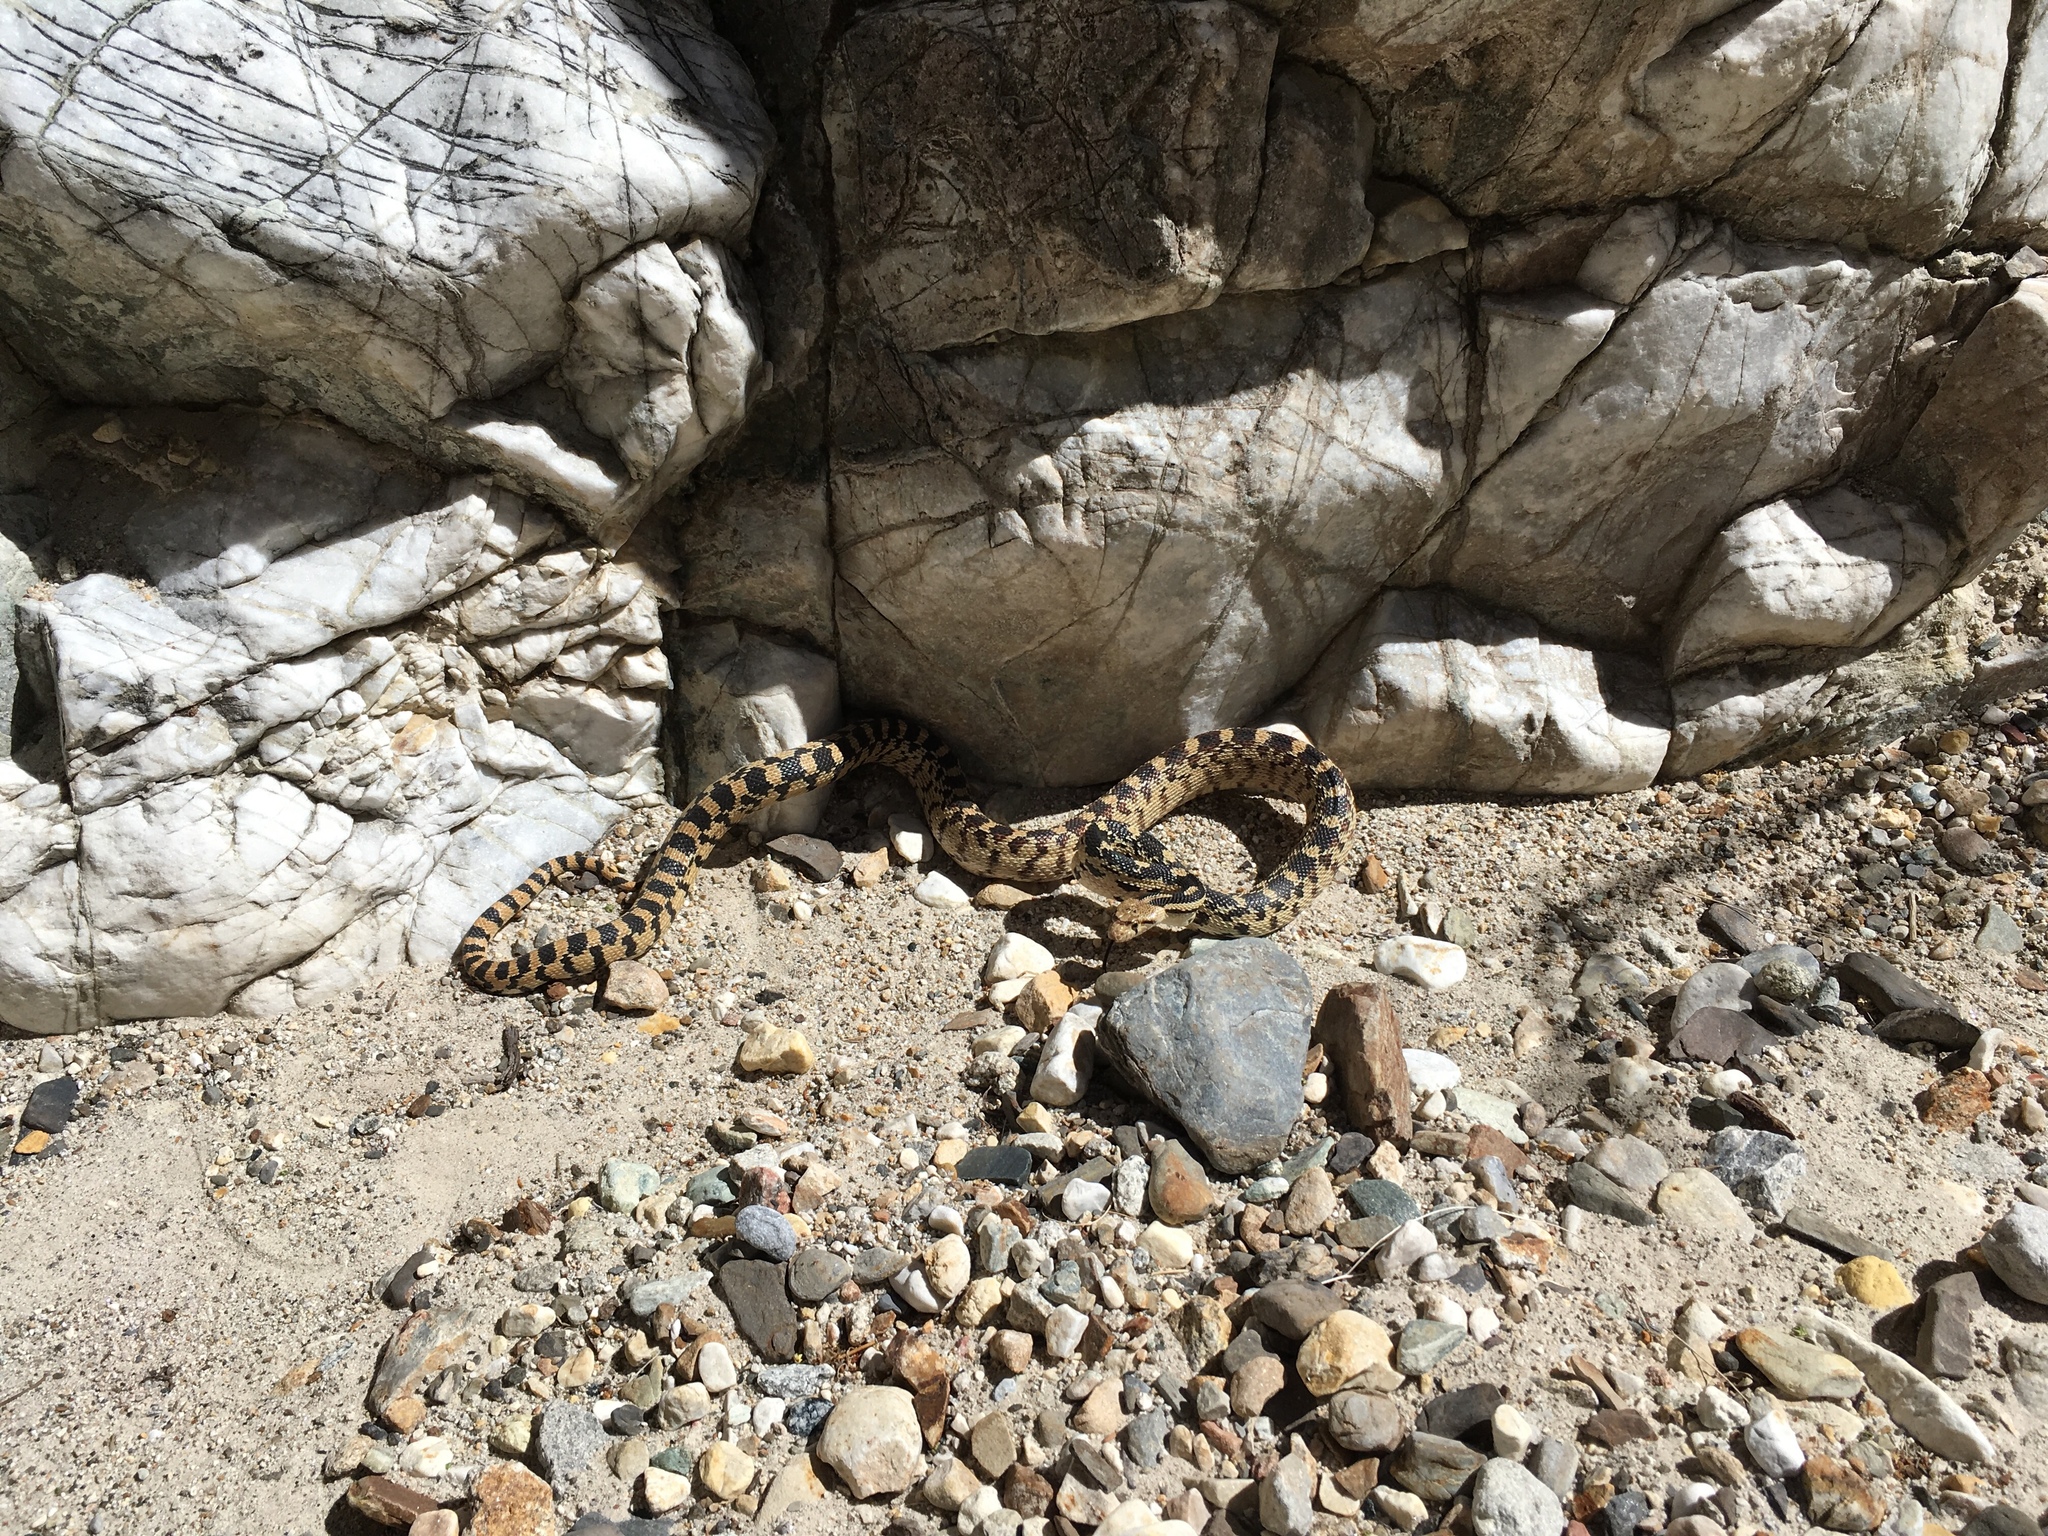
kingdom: Animalia
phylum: Chordata
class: Squamata
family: Colubridae
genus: Pituophis
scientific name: Pituophis catenifer
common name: Gopher snake
